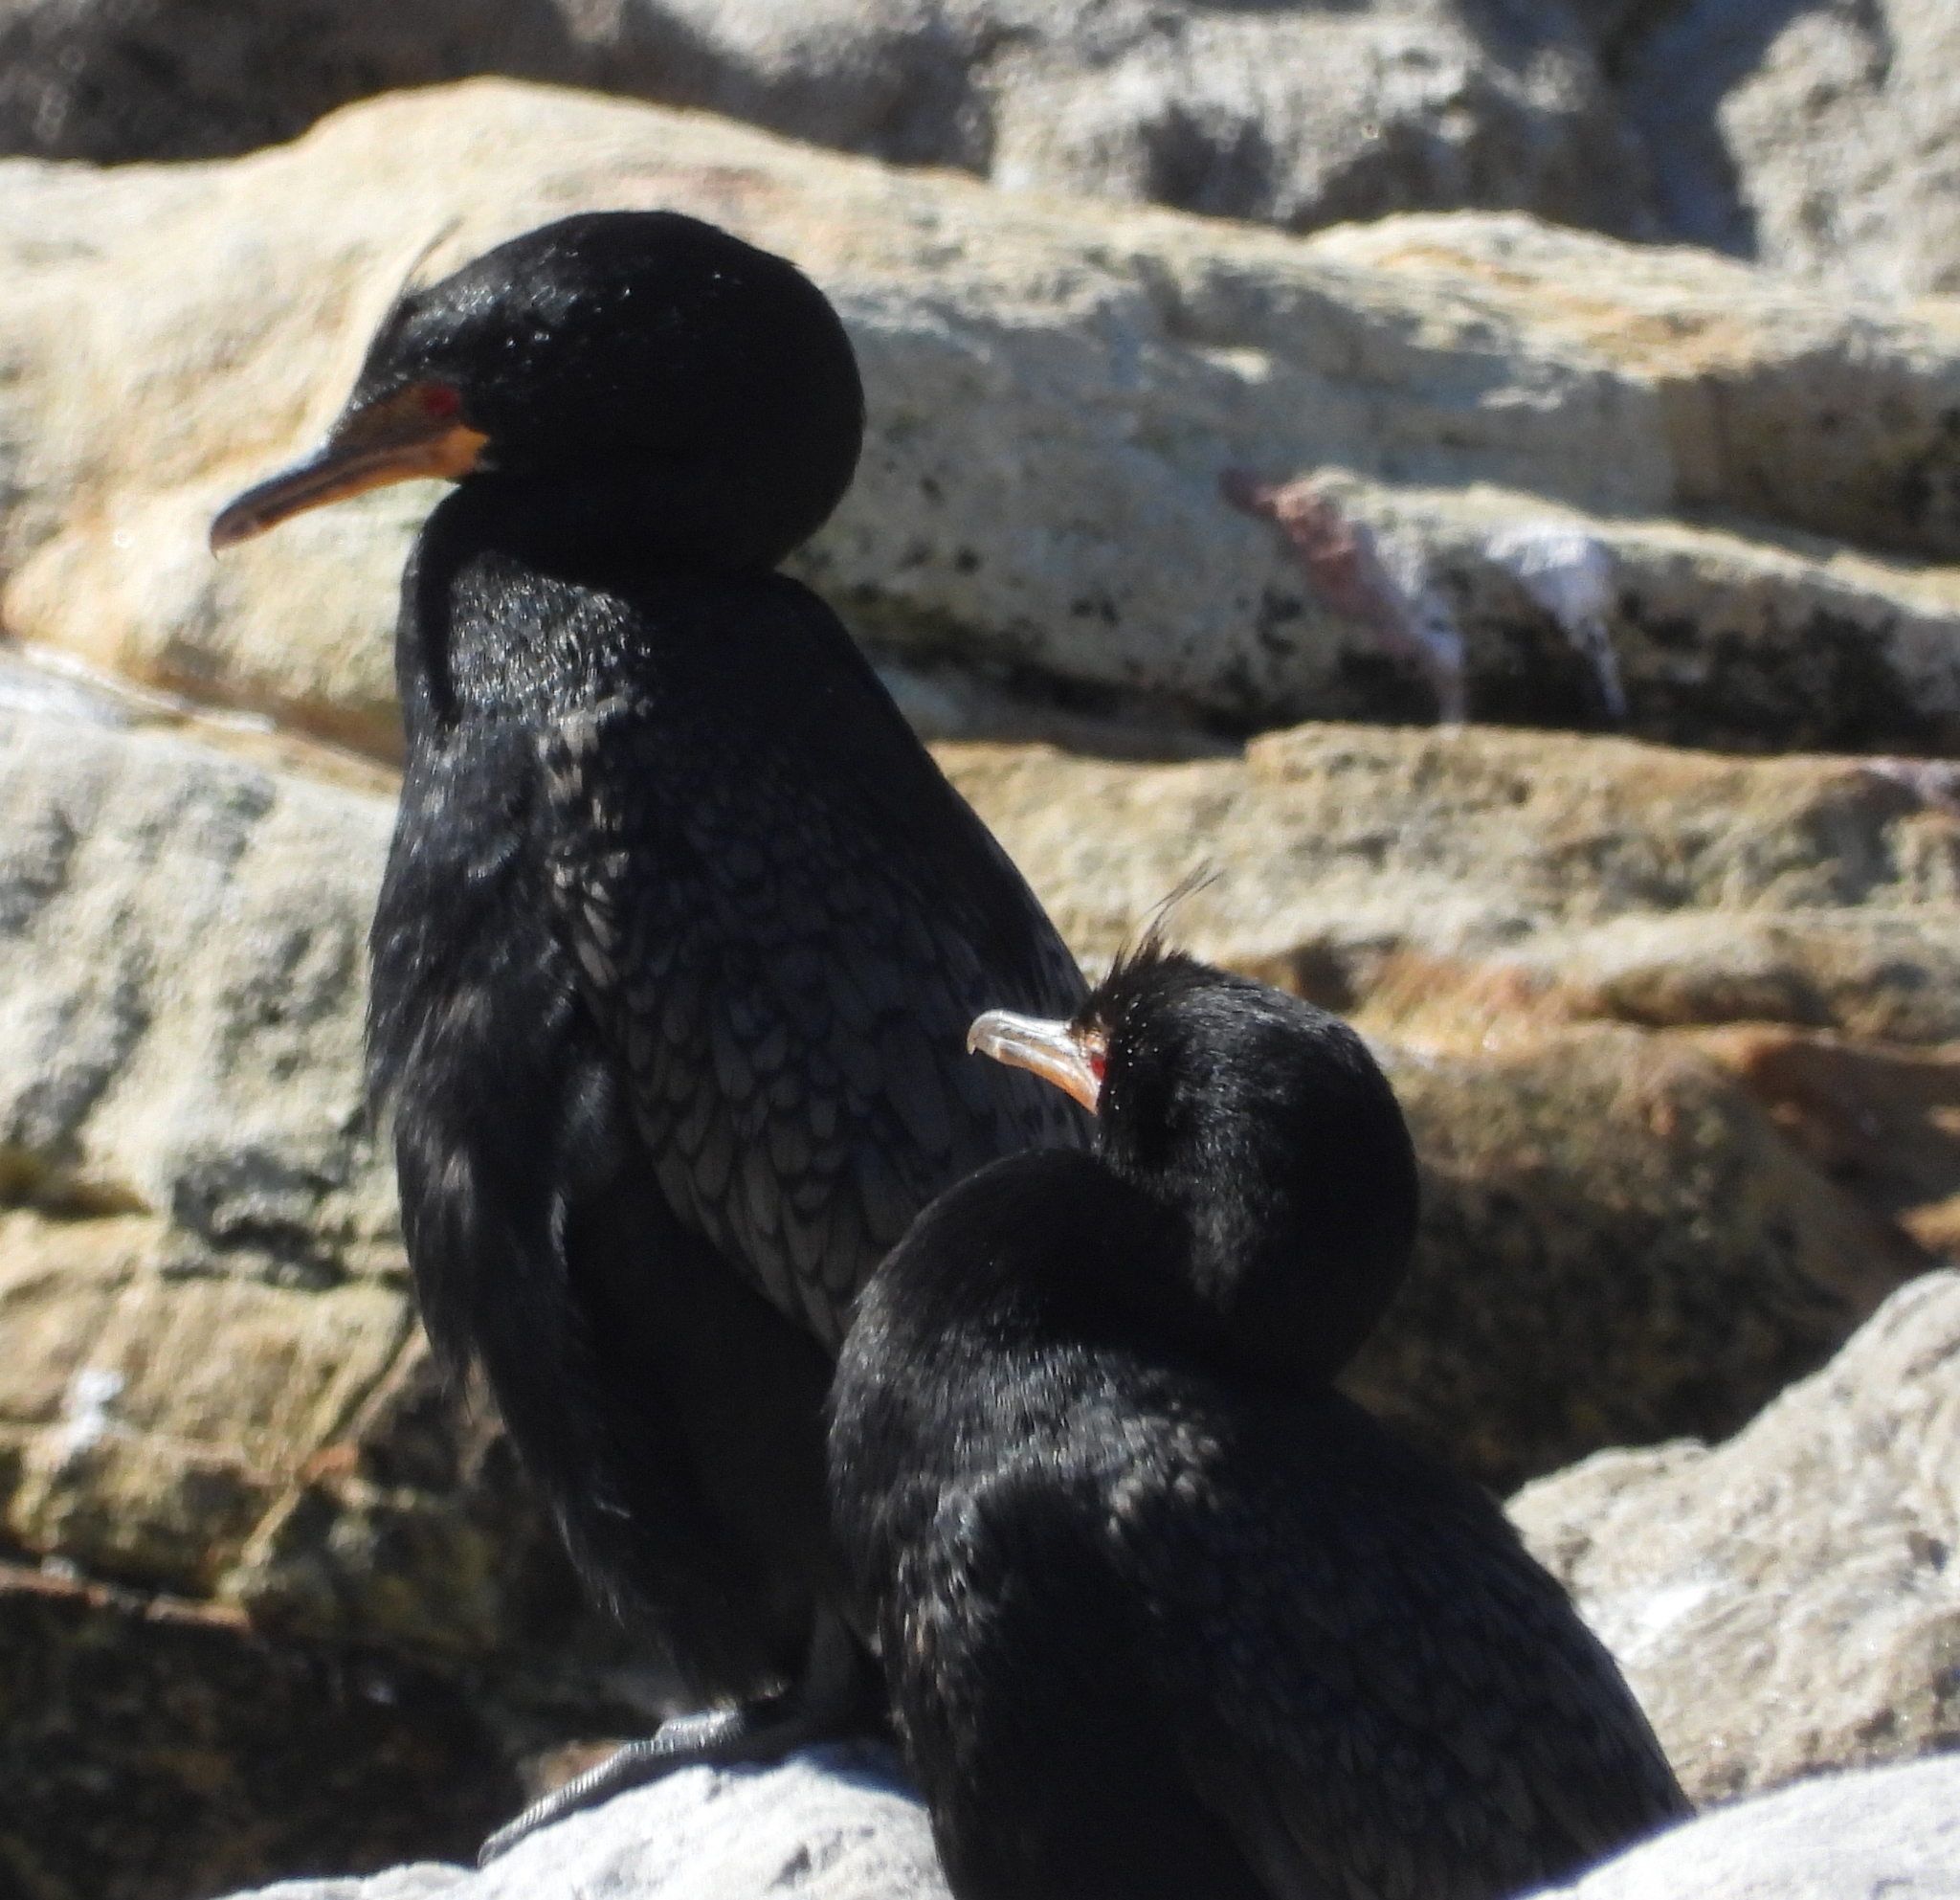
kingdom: Animalia
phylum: Chordata
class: Aves
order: Suliformes
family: Phalacrocoracidae
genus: Microcarbo
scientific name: Microcarbo coronatus
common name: Crowned cormorant
